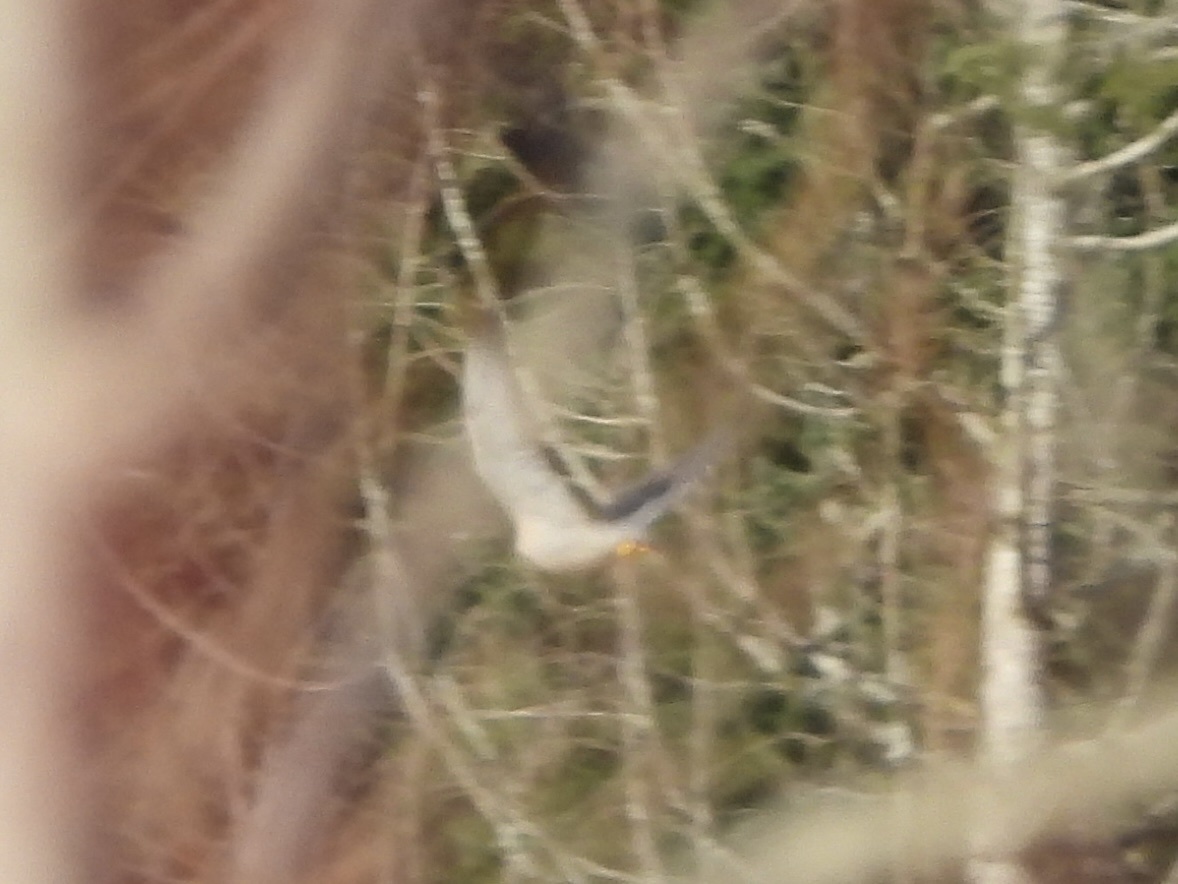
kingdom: Animalia
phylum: Chordata
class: Aves
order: Falconiformes
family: Falconidae
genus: Falco
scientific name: Falco peregrinus
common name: Peregrine falcon
